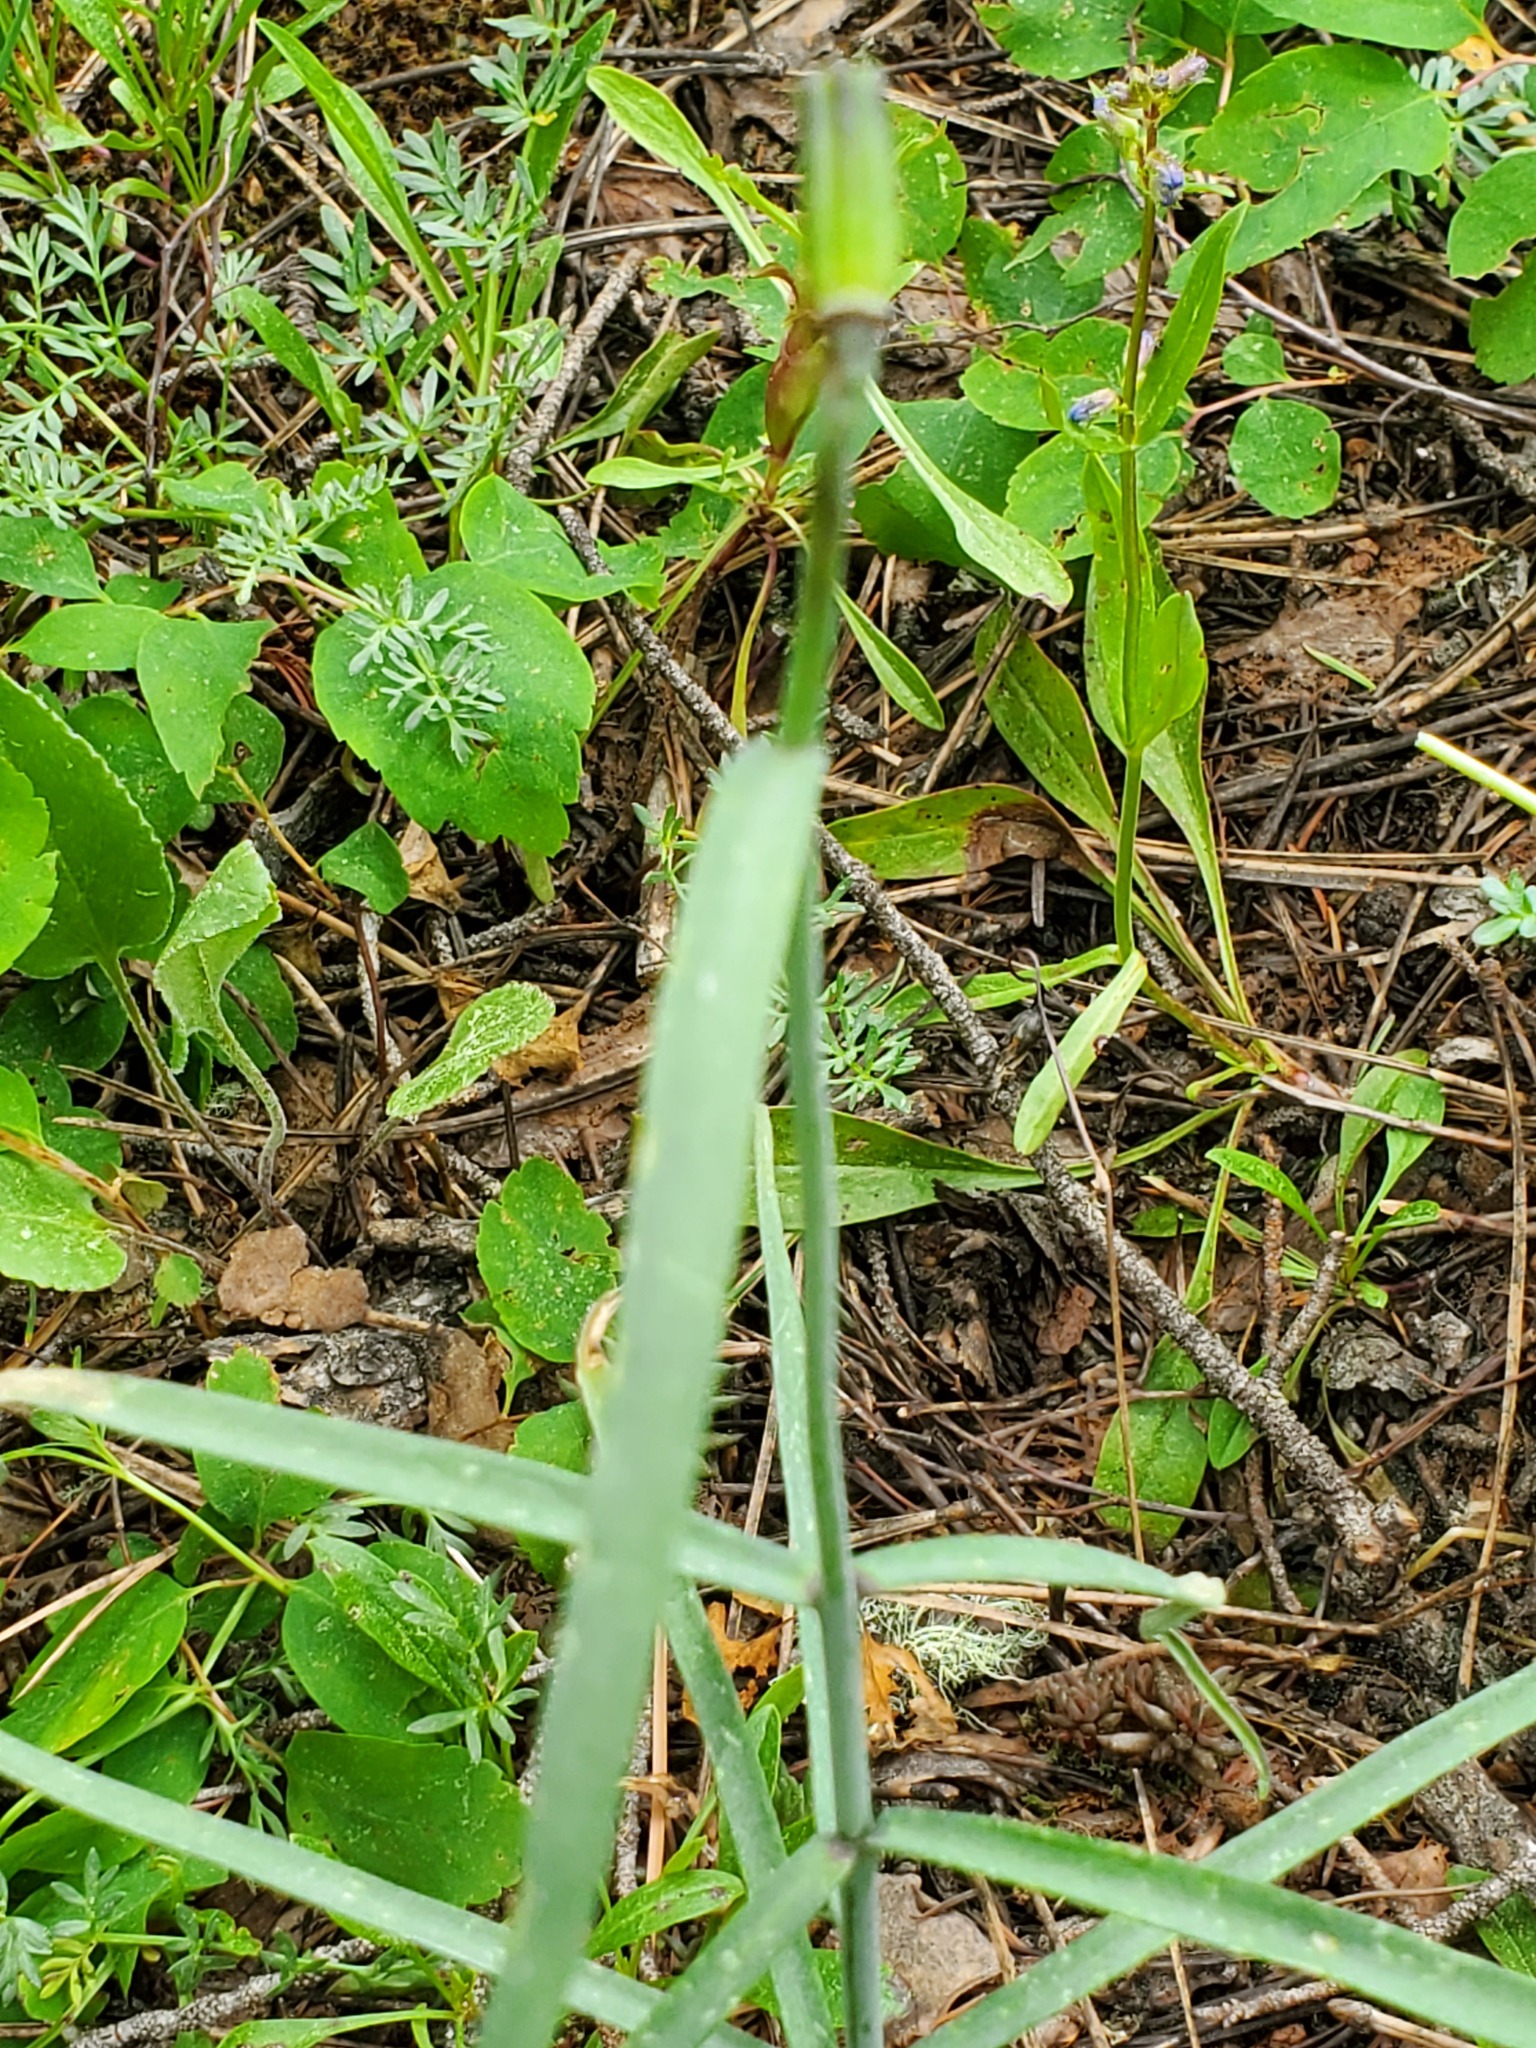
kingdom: Plantae
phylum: Tracheophyta
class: Liliopsida
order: Liliales
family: Liliaceae
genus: Fritillaria
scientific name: Fritillaria atropurpurea
